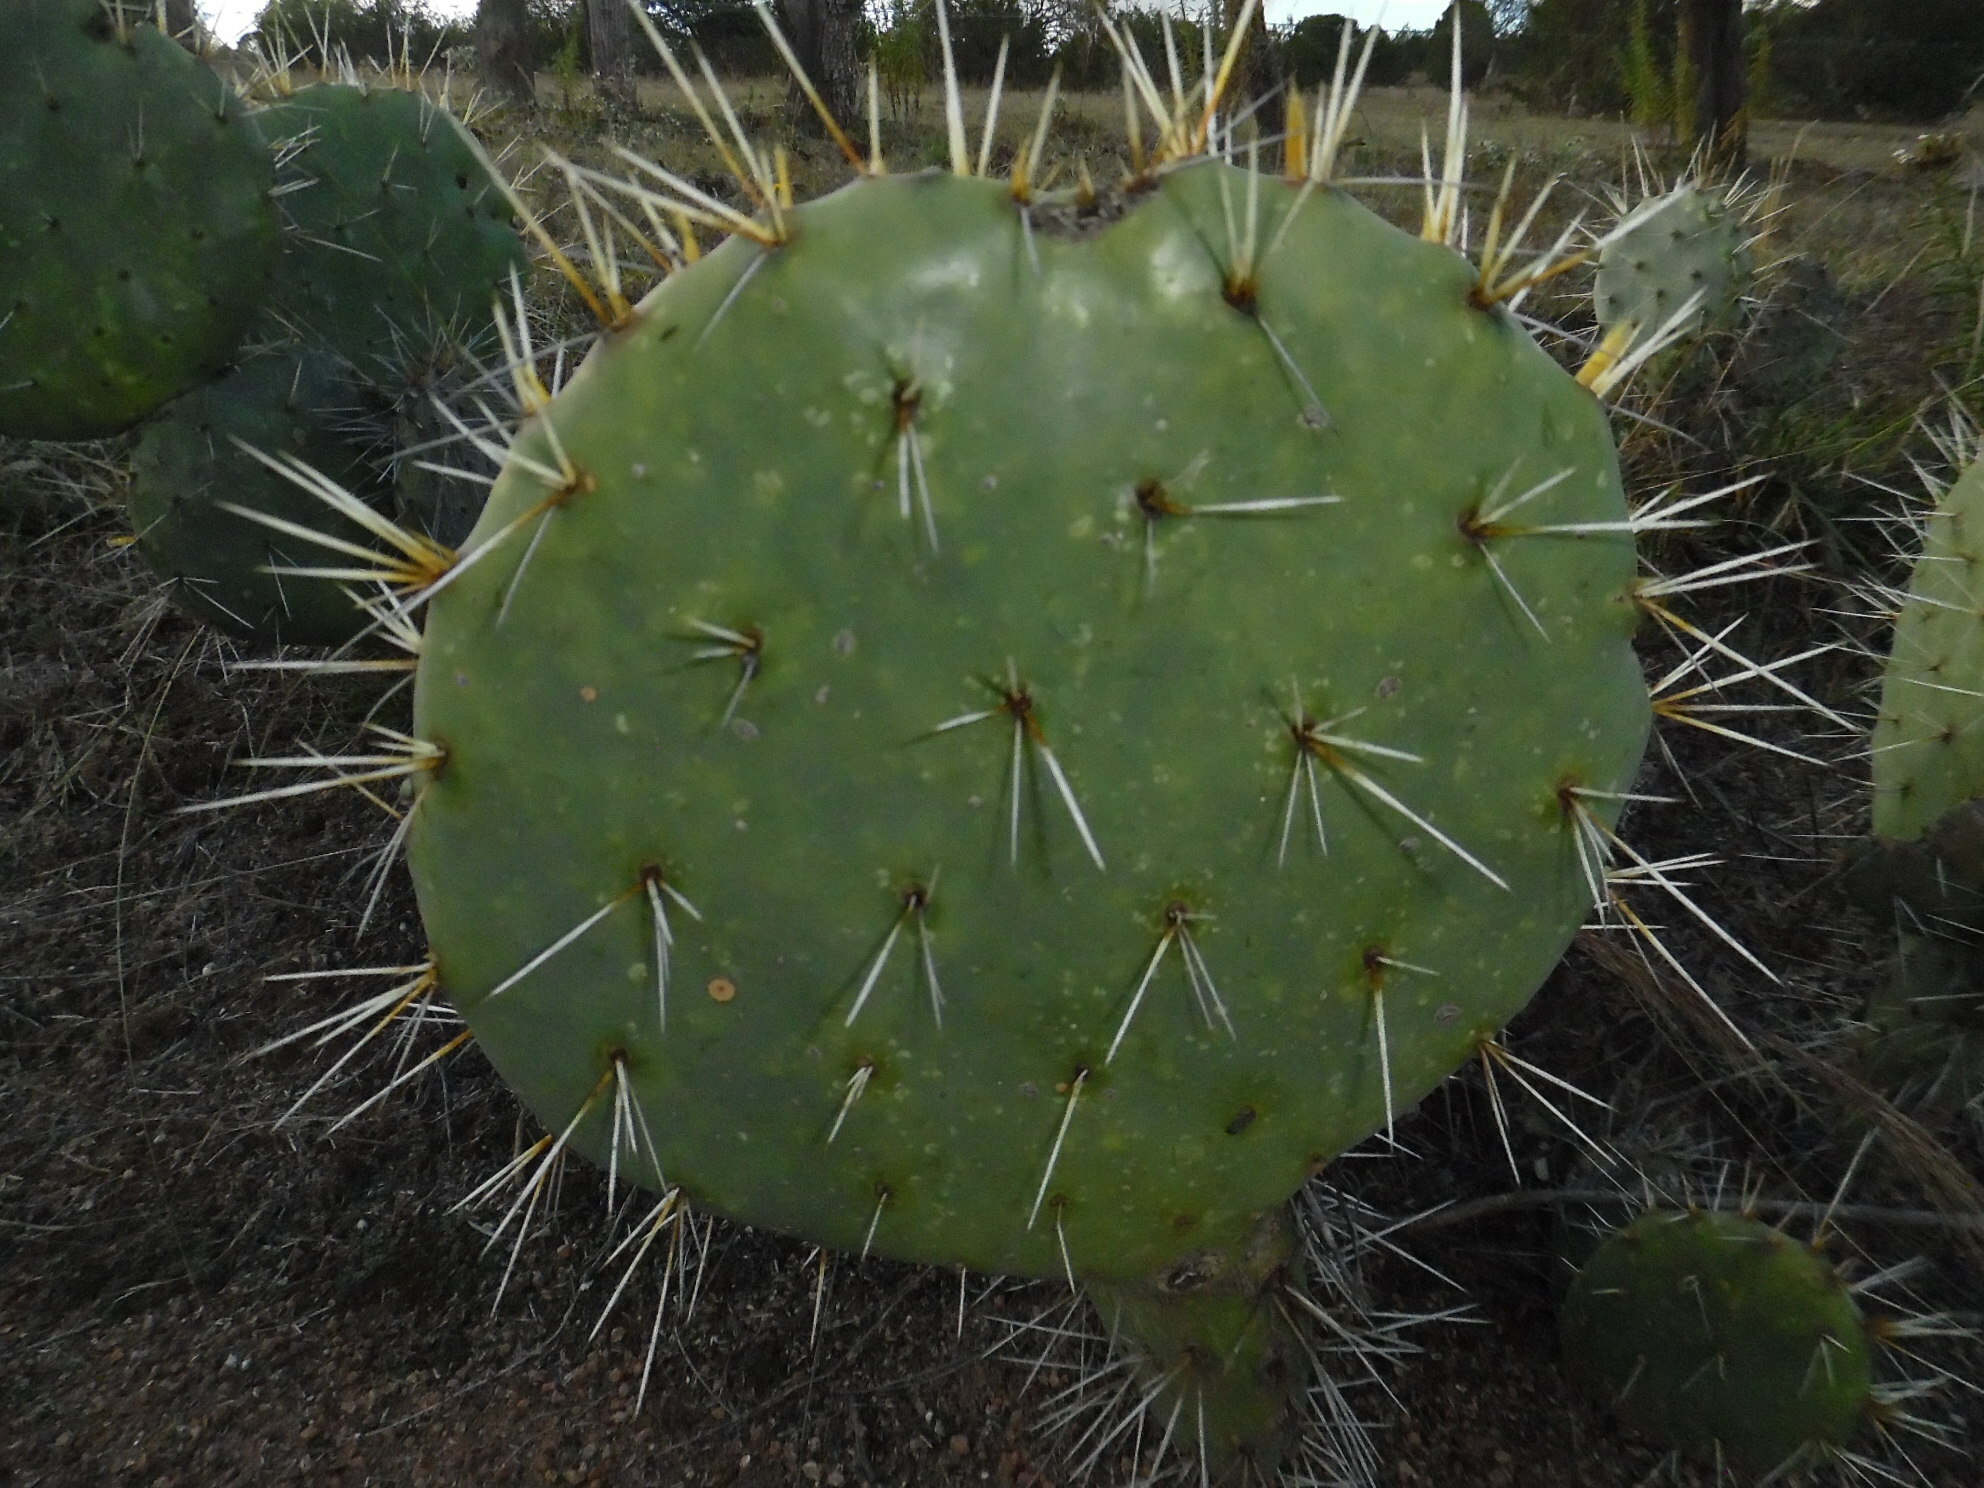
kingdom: Plantae
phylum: Tracheophyta
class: Magnoliopsida
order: Caryophyllales
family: Cactaceae
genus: Opuntia
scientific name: Opuntia robusta
